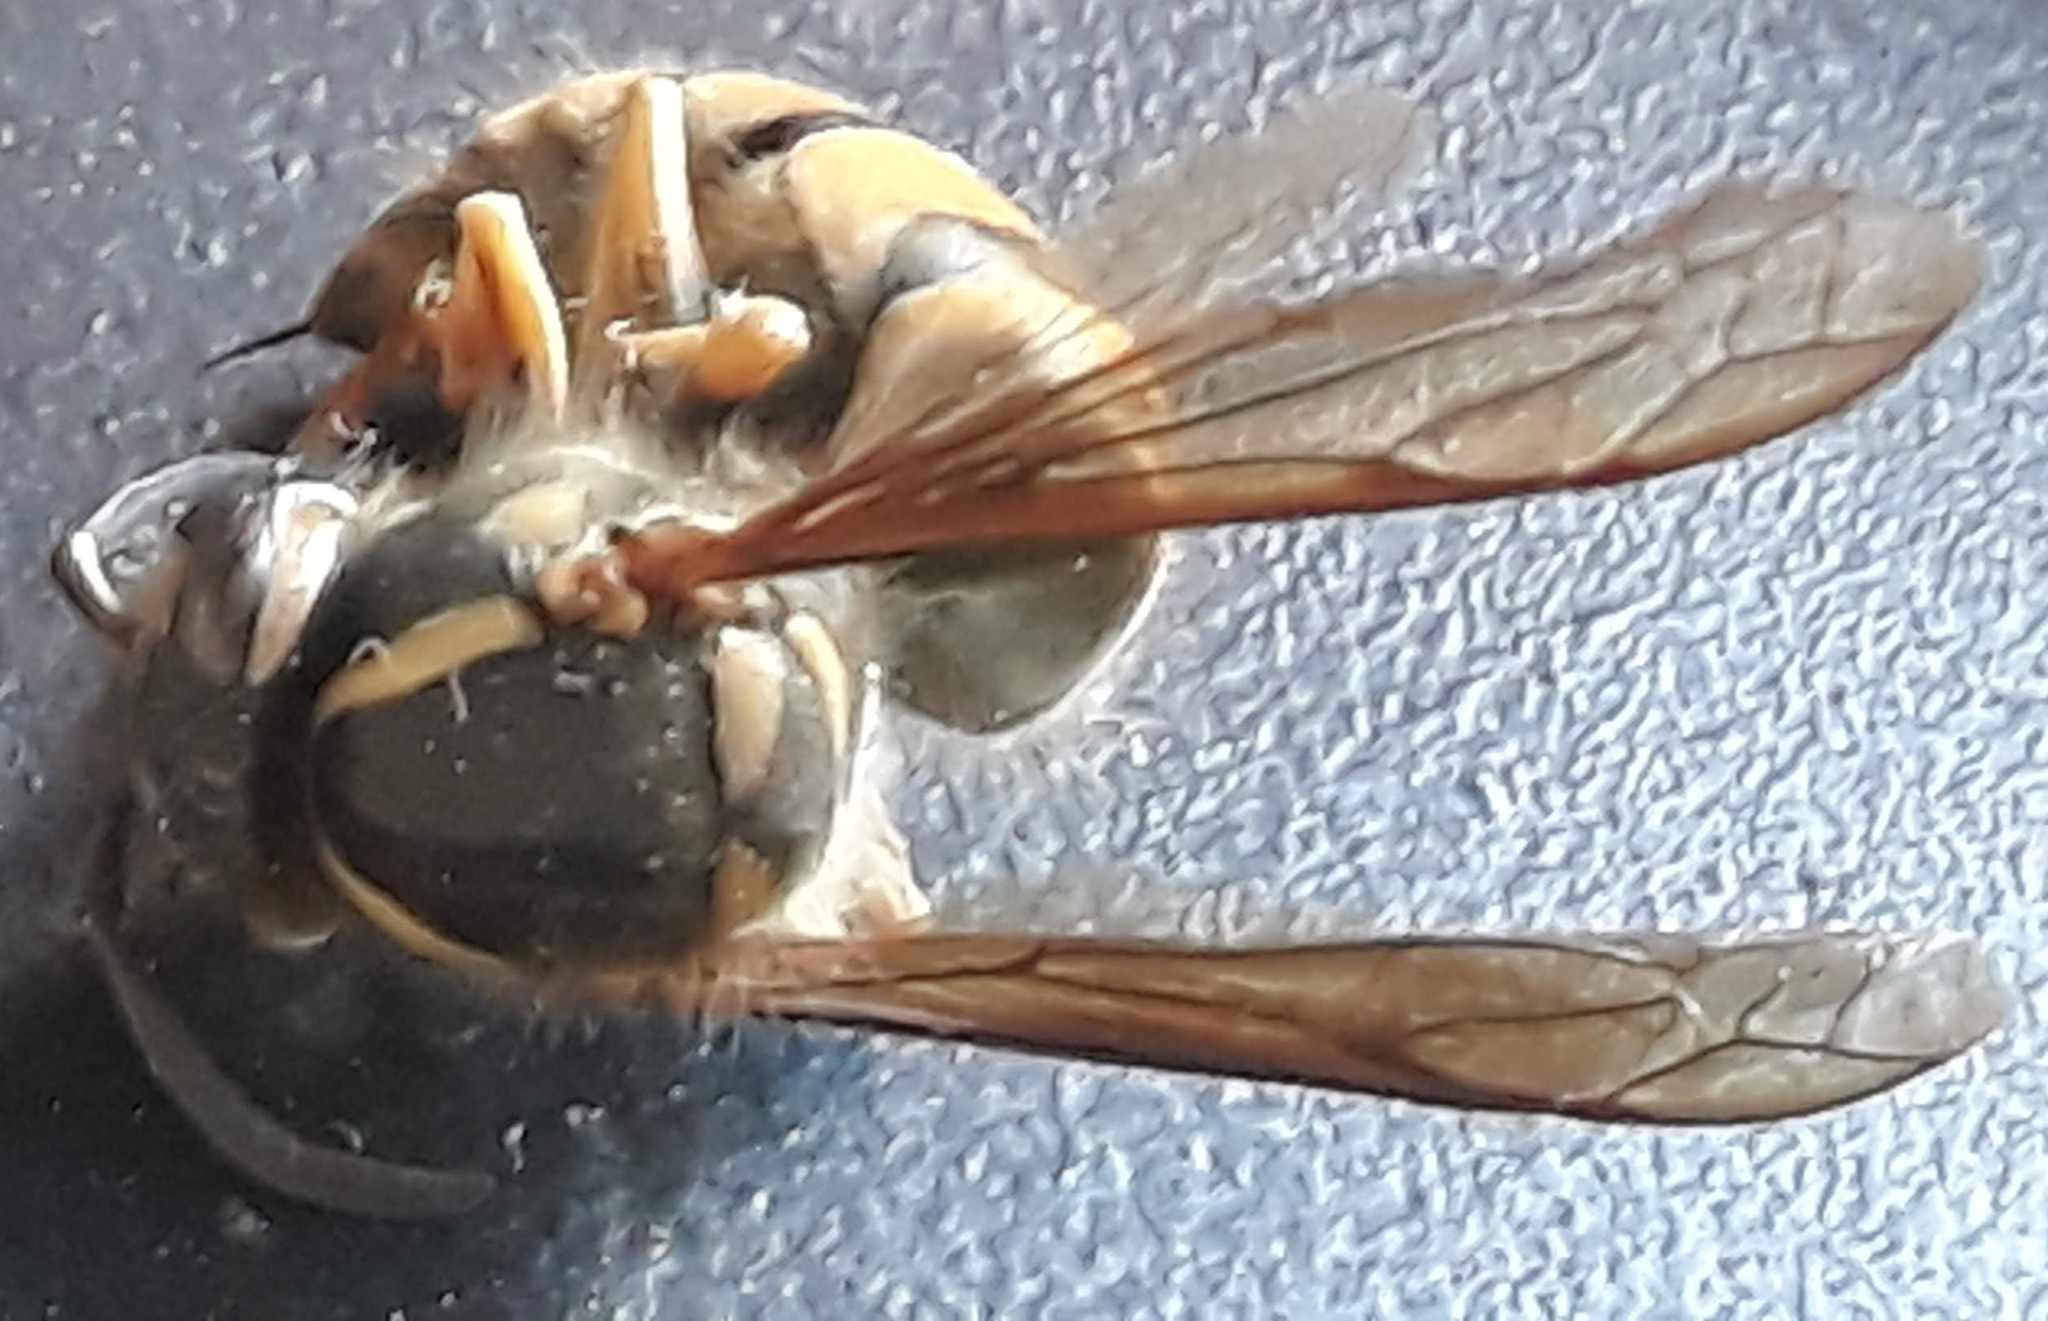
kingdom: Animalia
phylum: Arthropoda
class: Insecta
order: Hymenoptera
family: Vespidae
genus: Vespula
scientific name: Vespula maculifrons
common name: Eastern yellowjacket
